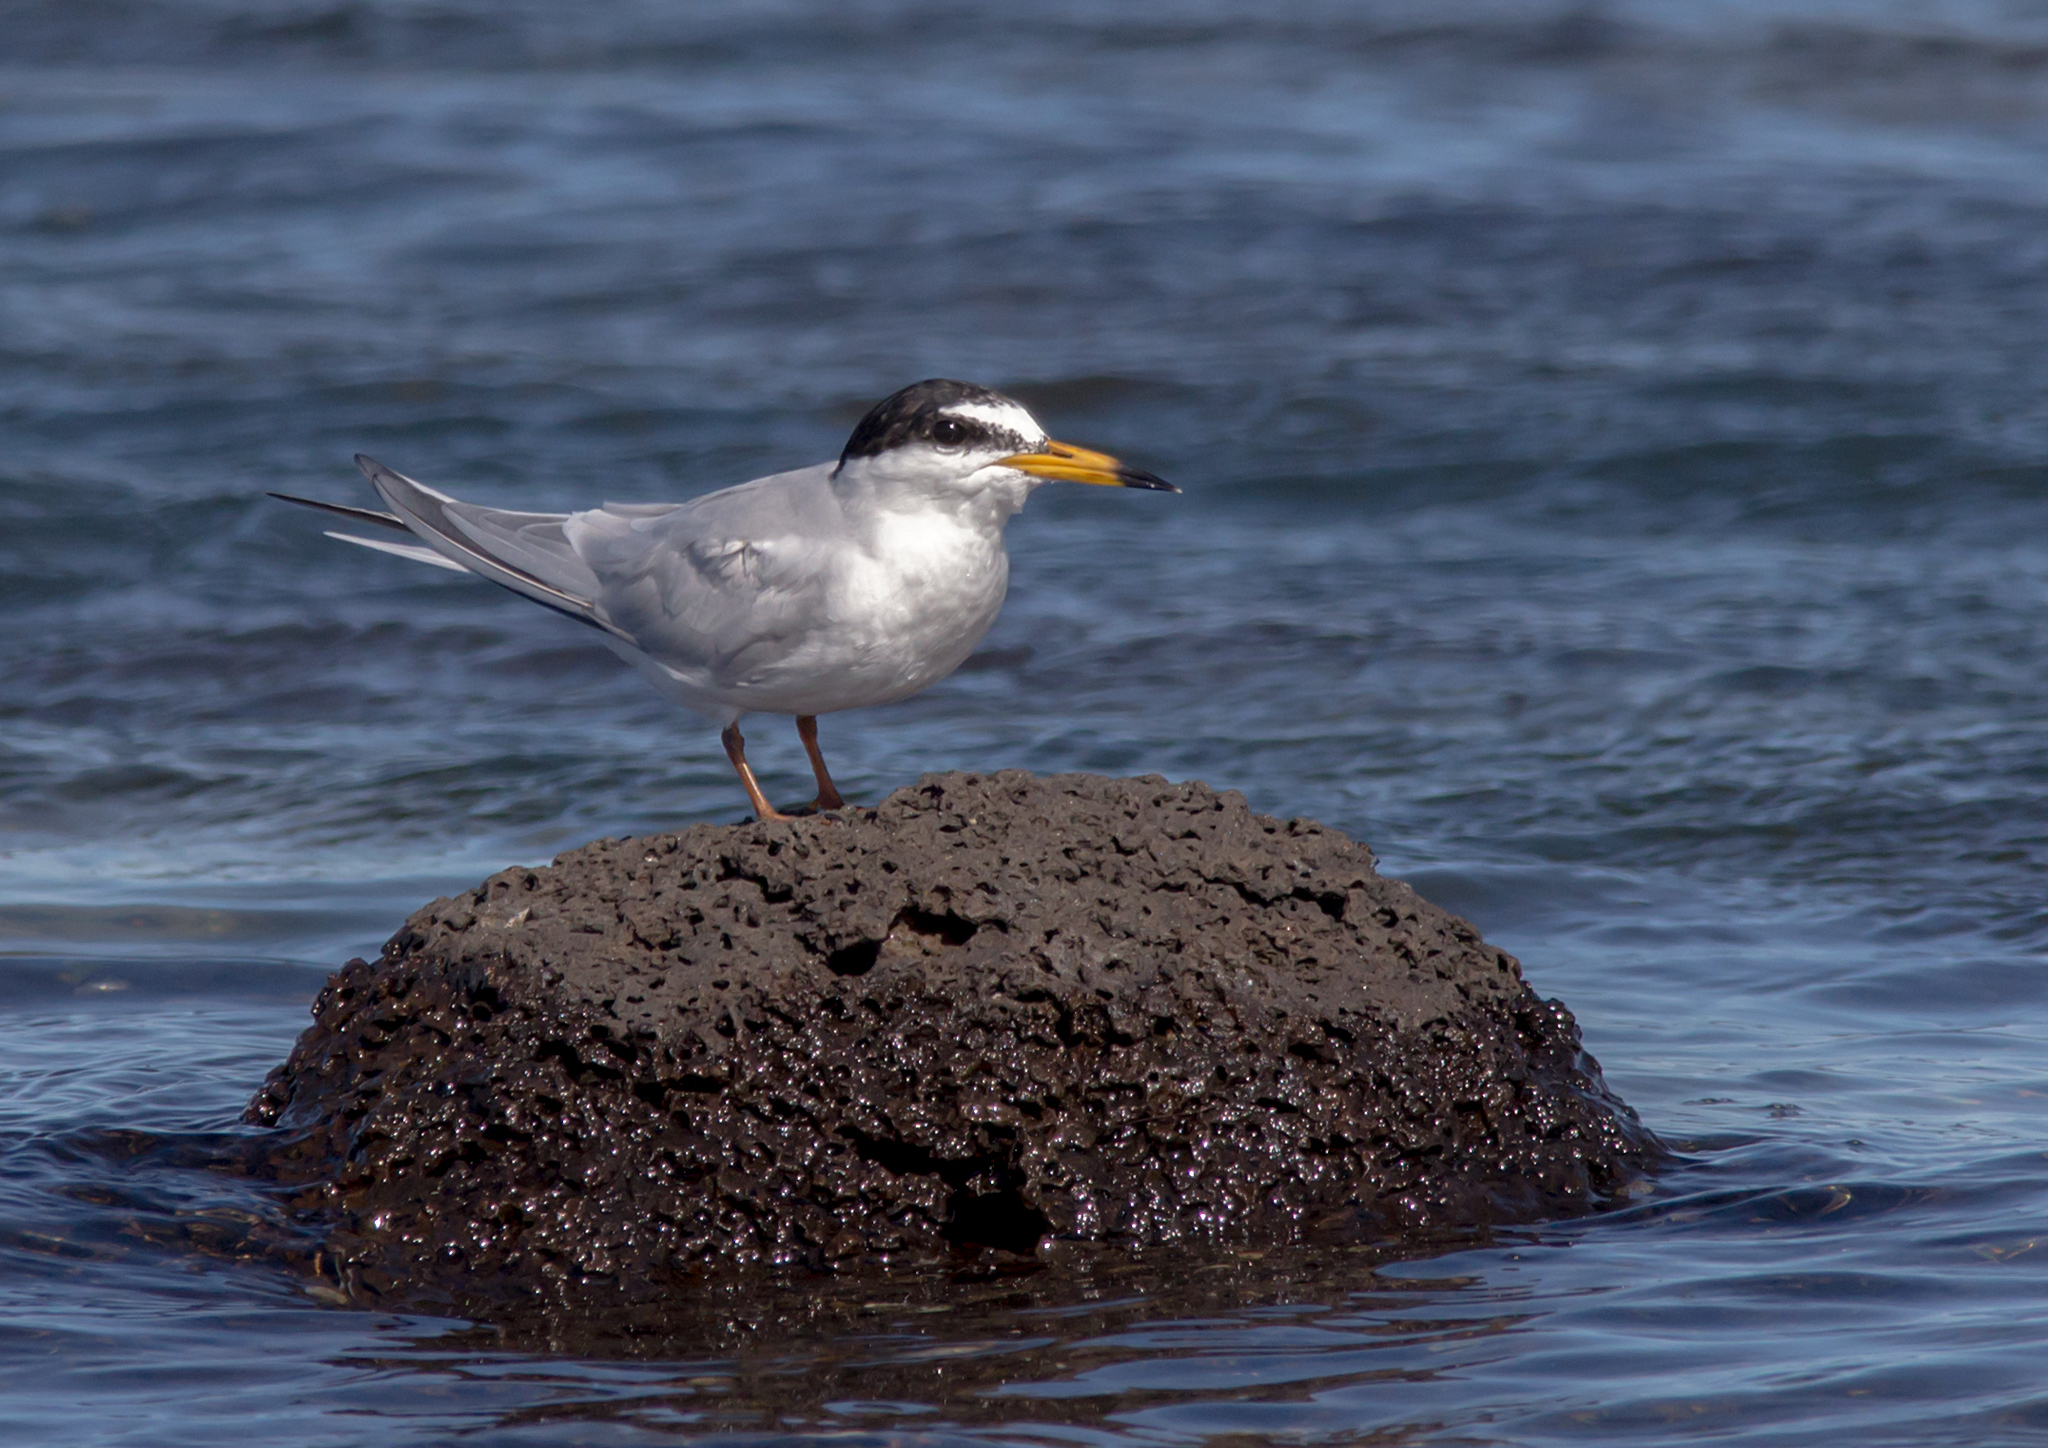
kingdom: Animalia
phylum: Chordata
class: Aves
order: Charadriiformes
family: Laridae
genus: Sternula
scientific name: Sternula albifrons
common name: Little tern
